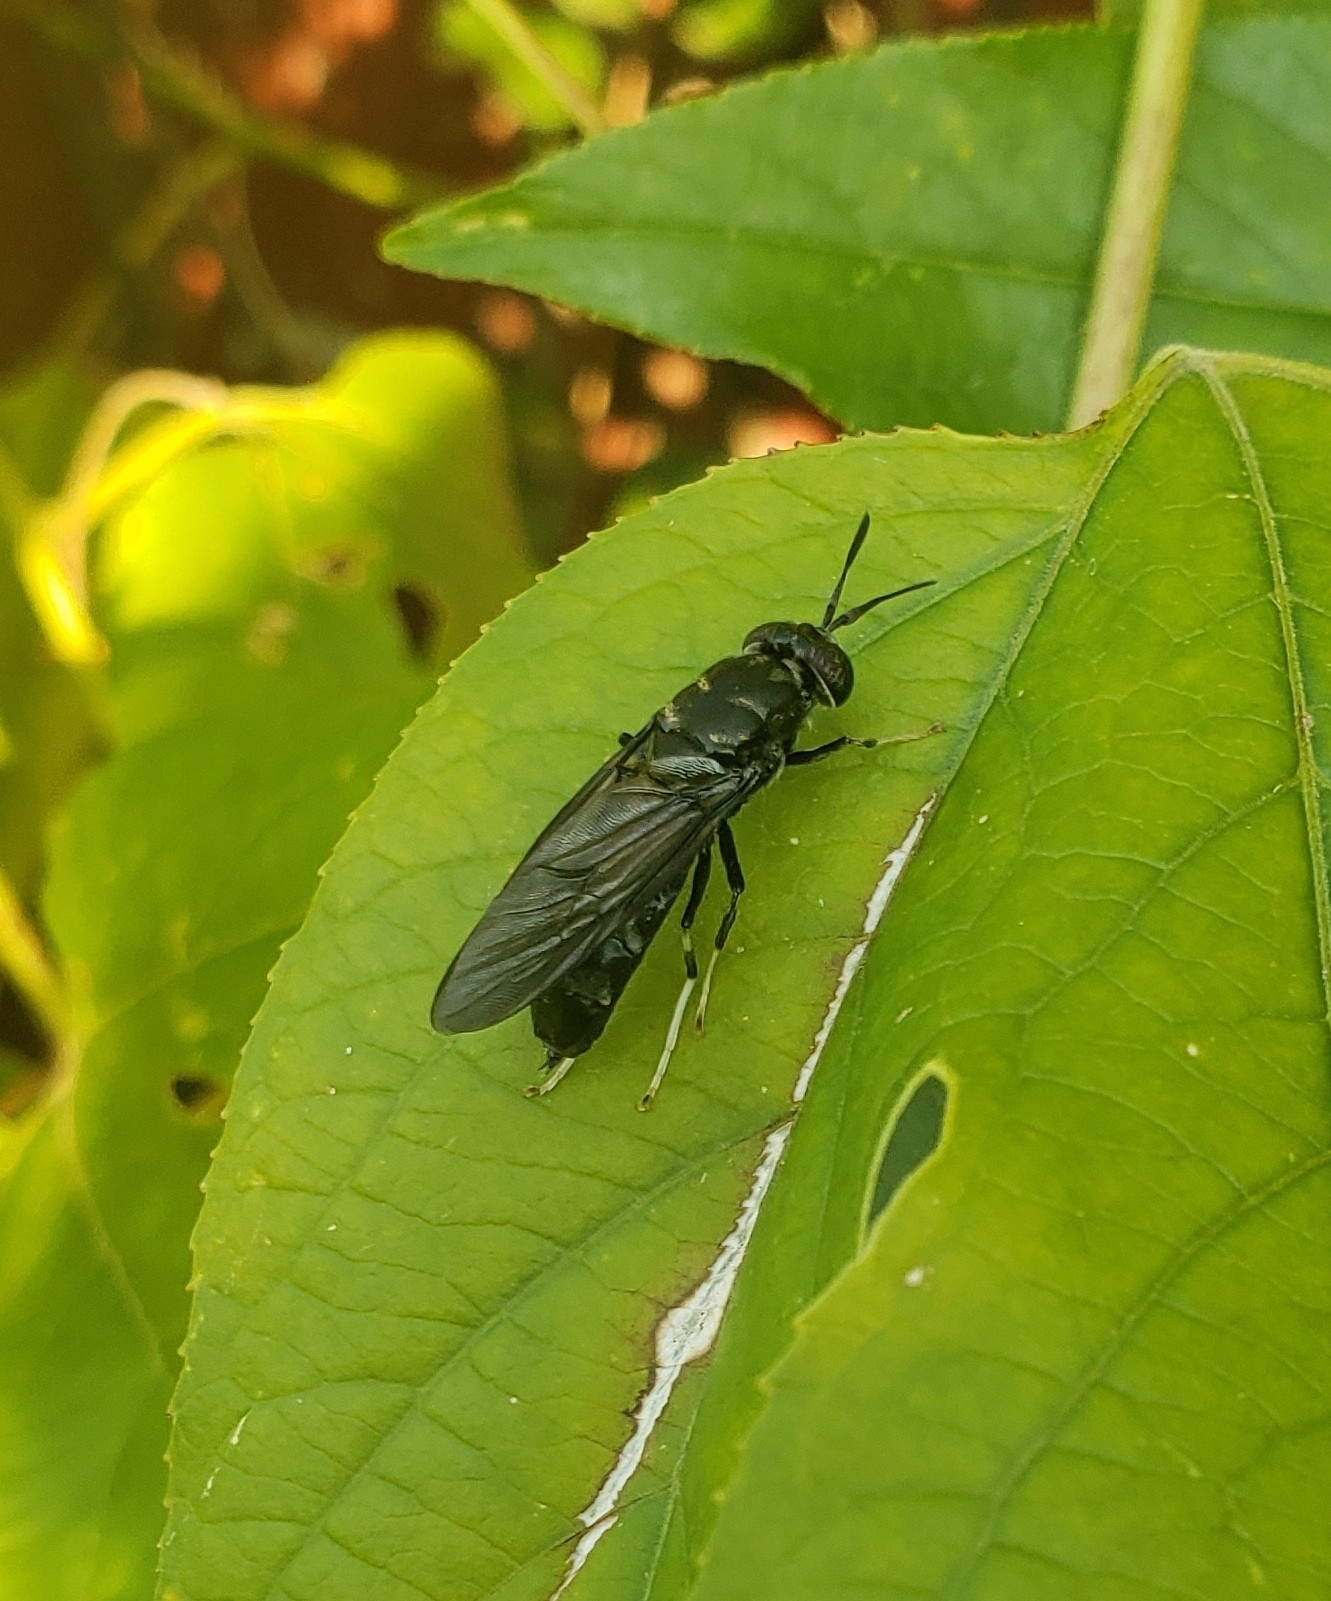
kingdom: Animalia
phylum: Arthropoda
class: Insecta
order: Diptera
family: Stratiomyidae
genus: Hermetia
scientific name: Hermetia illucens
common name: Black soldier fly
